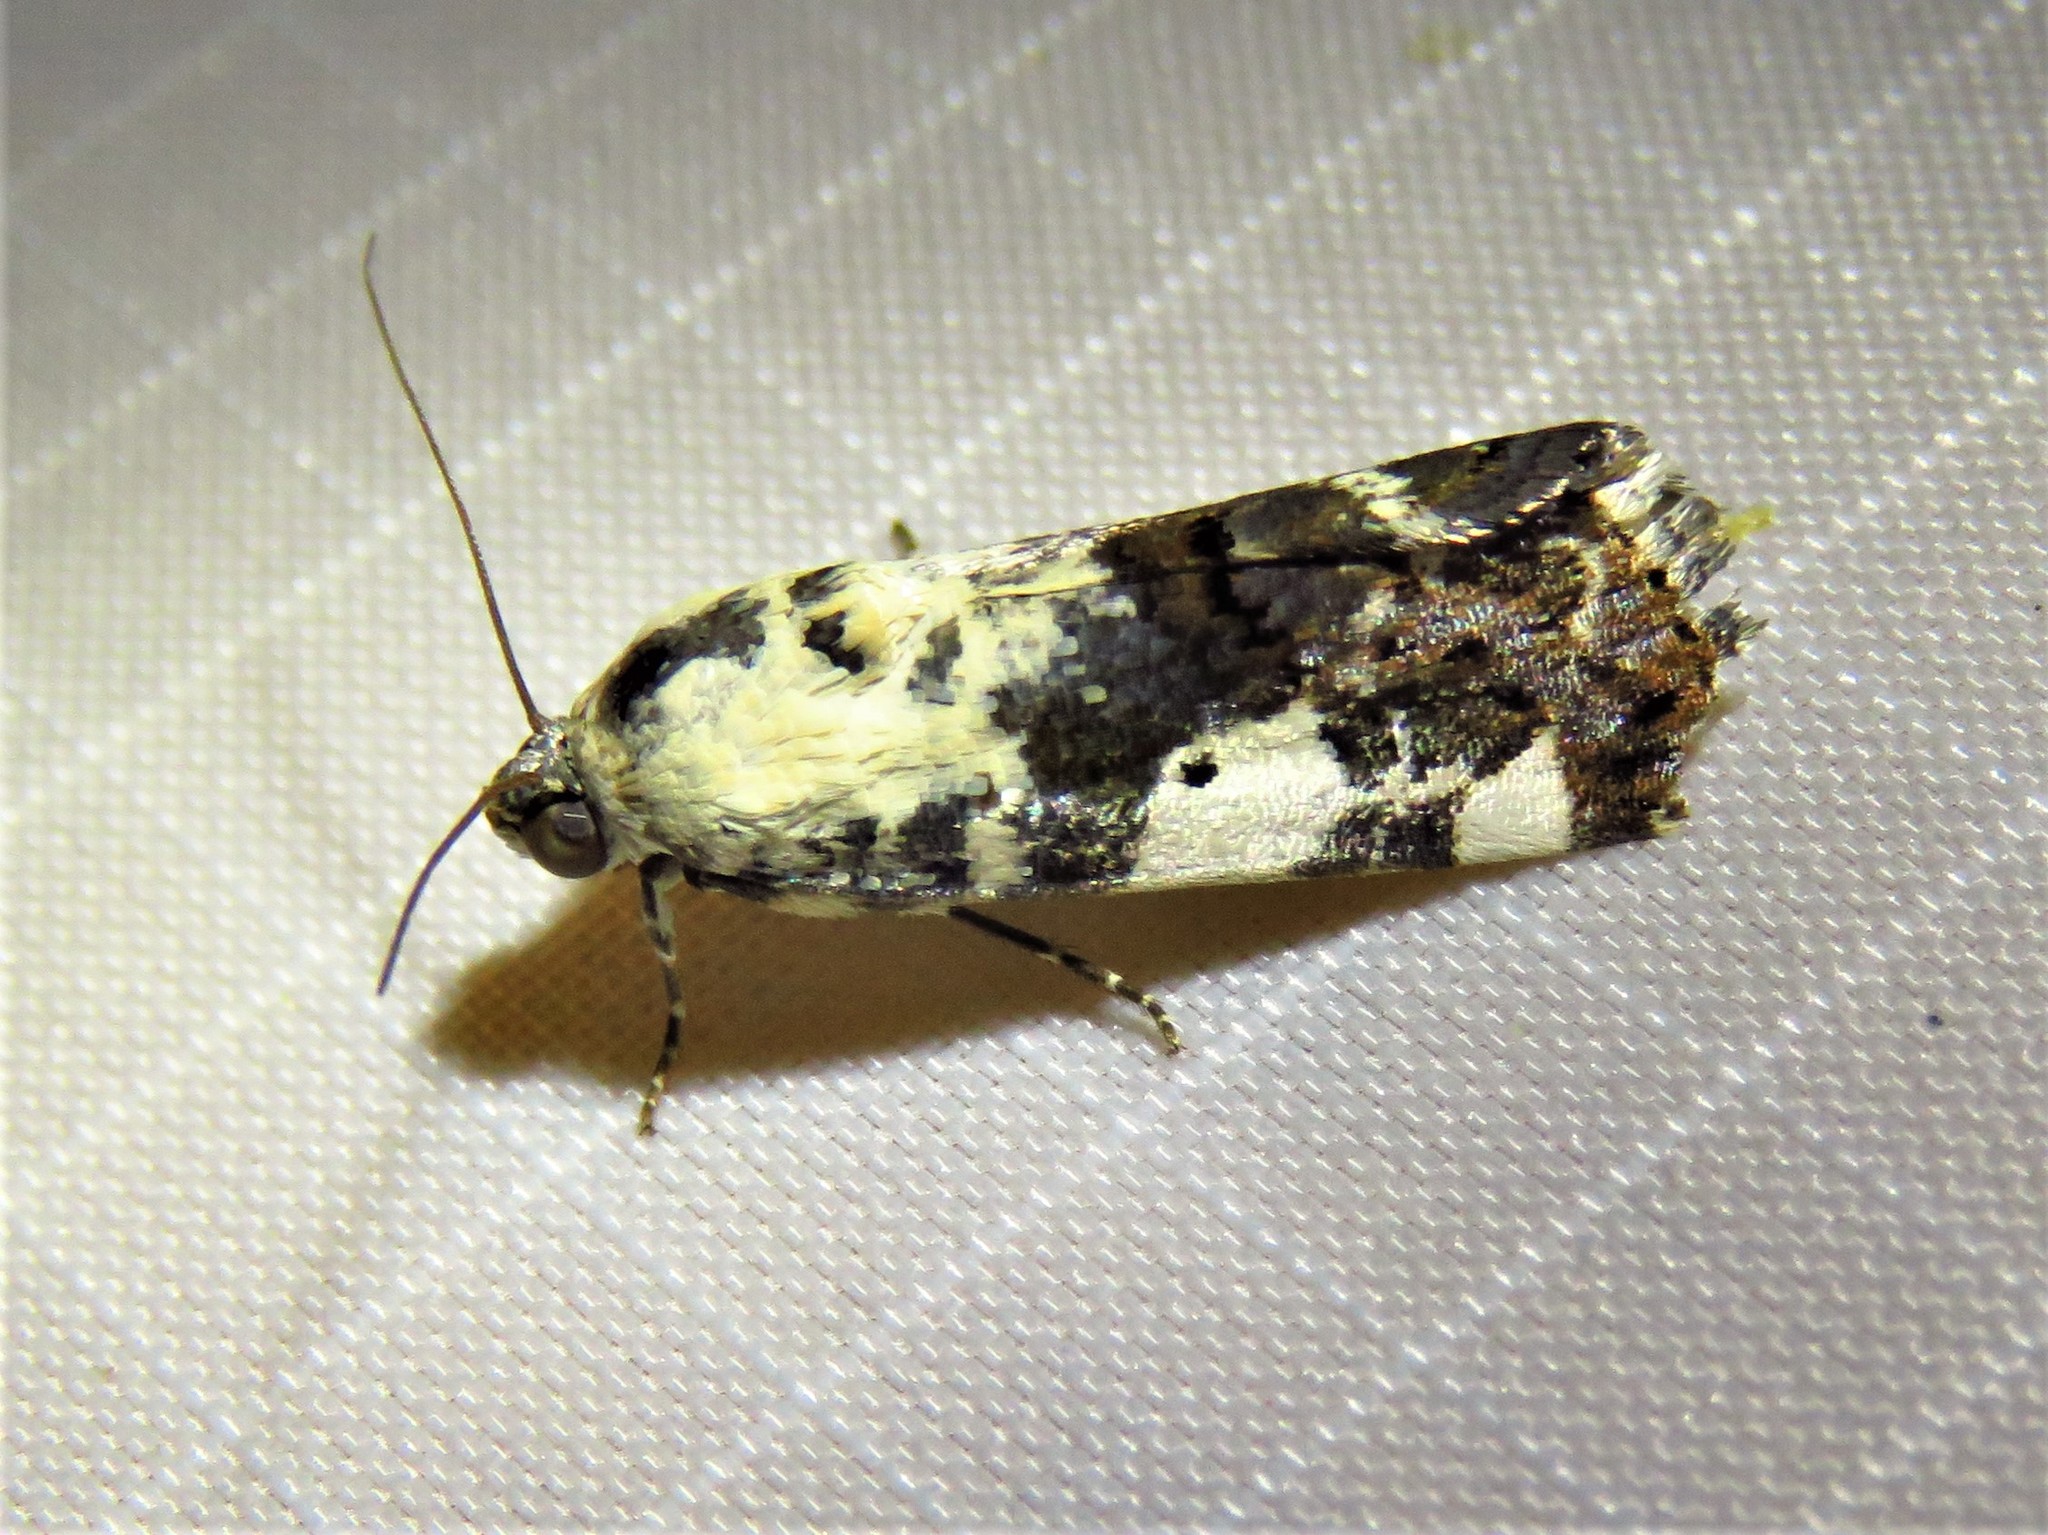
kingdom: Animalia
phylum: Arthropoda
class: Insecta
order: Lepidoptera
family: Noctuidae
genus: Acontia
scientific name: Acontia aprica
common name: Nun
